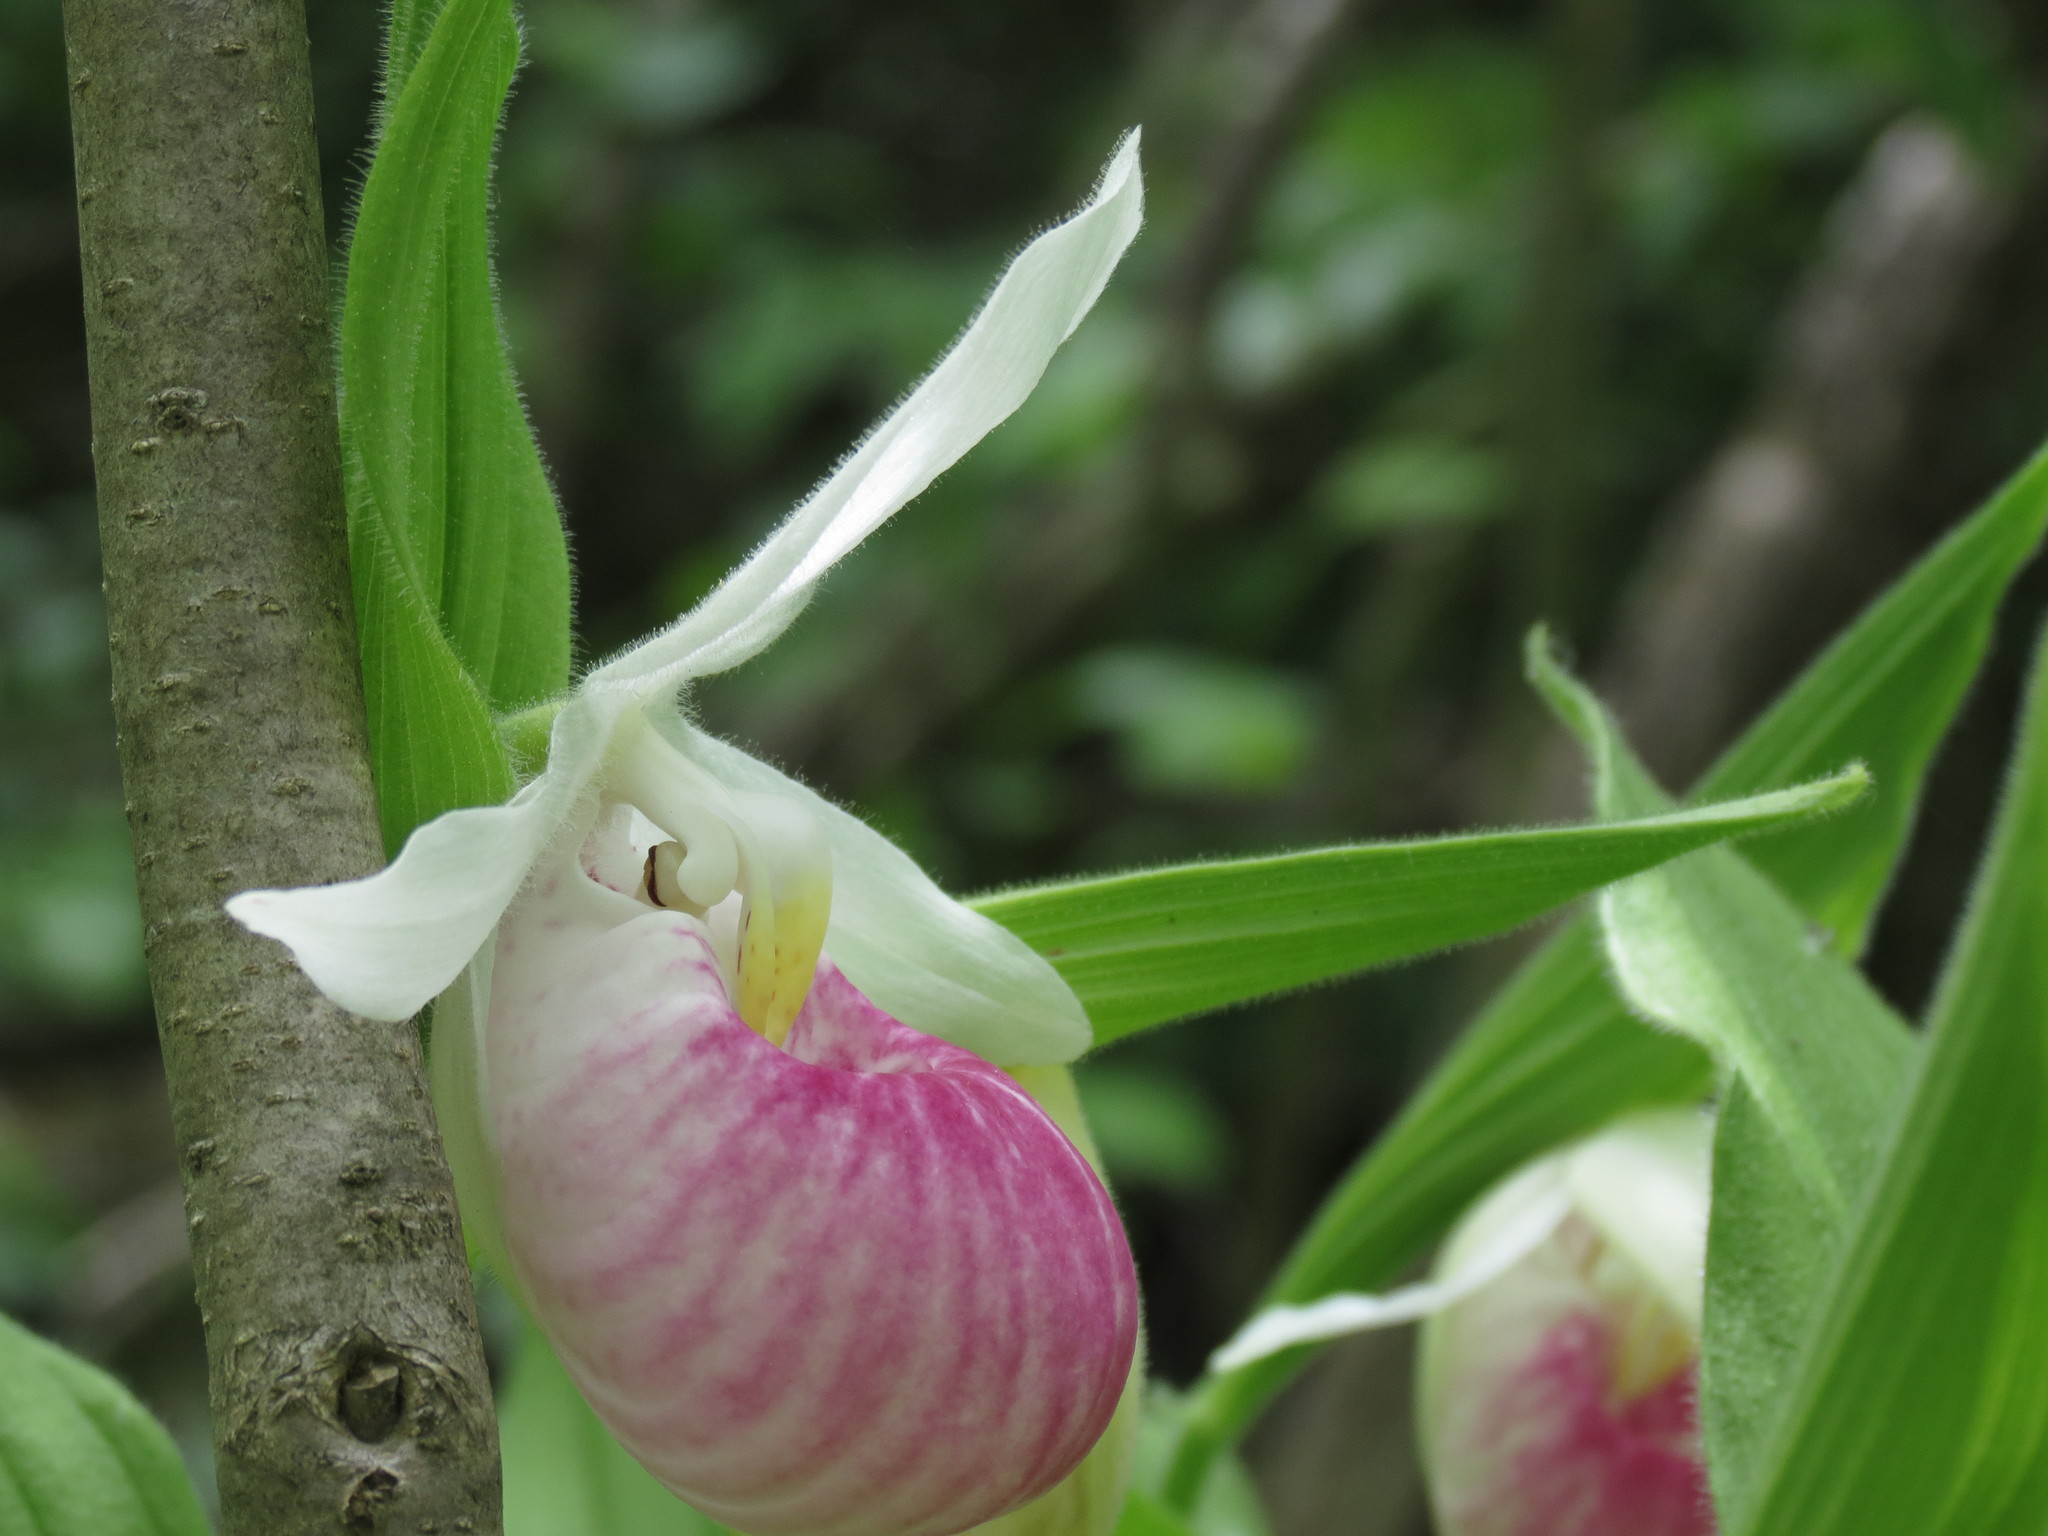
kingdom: Plantae
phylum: Tracheophyta
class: Liliopsida
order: Asparagales
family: Orchidaceae
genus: Cypripedium
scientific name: Cypripedium reginae
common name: Queen lady's-slipper
